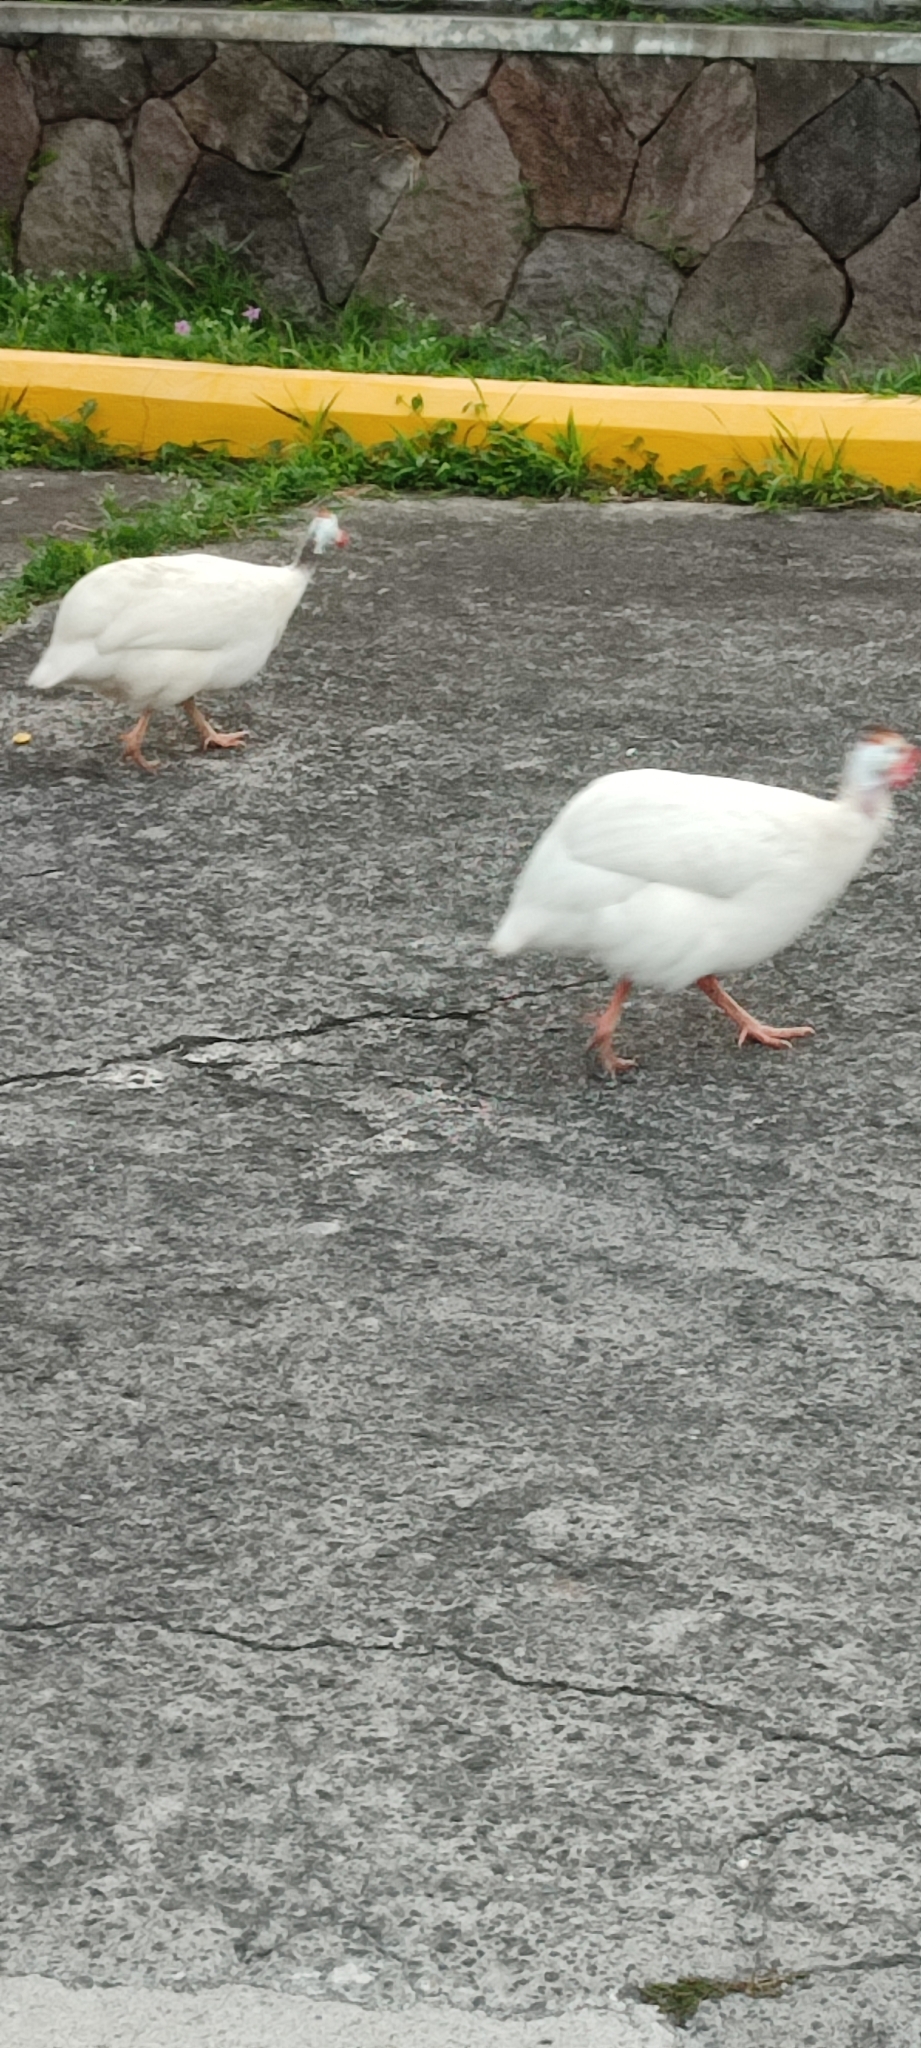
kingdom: Animalia
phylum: Chordata
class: Aves
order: Galliformes
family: Numididae
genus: Numida
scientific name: Numida meleagris
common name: Helmeted guineafowl
